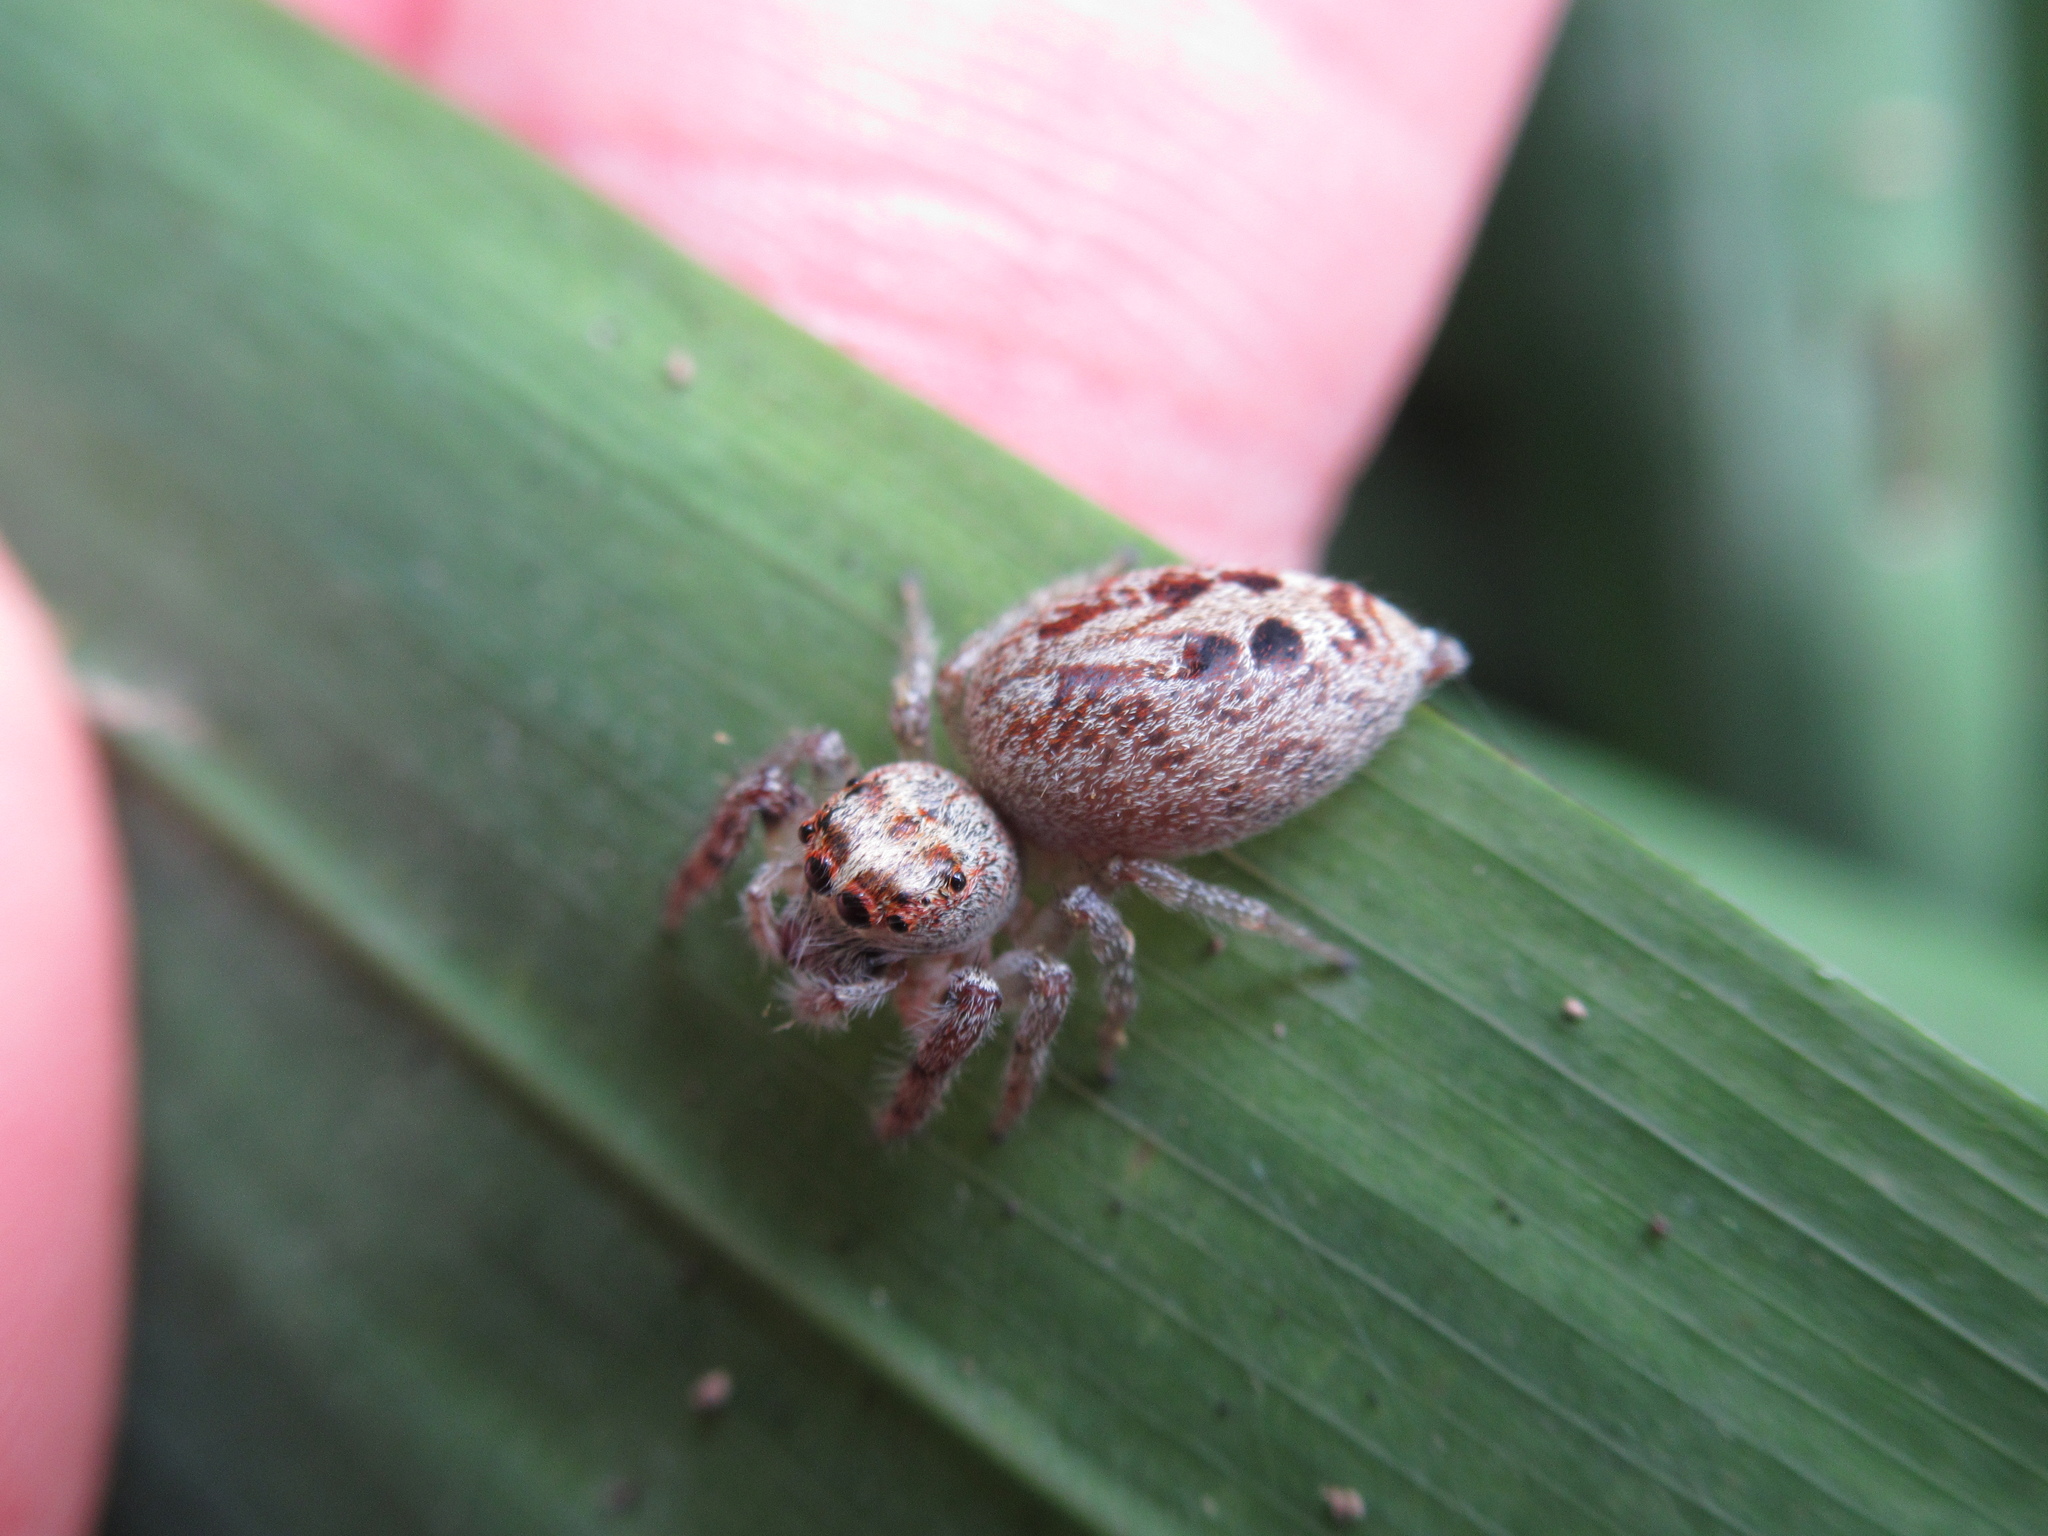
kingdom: Animalia
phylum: Arthropoda
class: Arachnida
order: Araneae
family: Salticidae
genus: Opisthoncus
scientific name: Opisthoncus polyphemus
